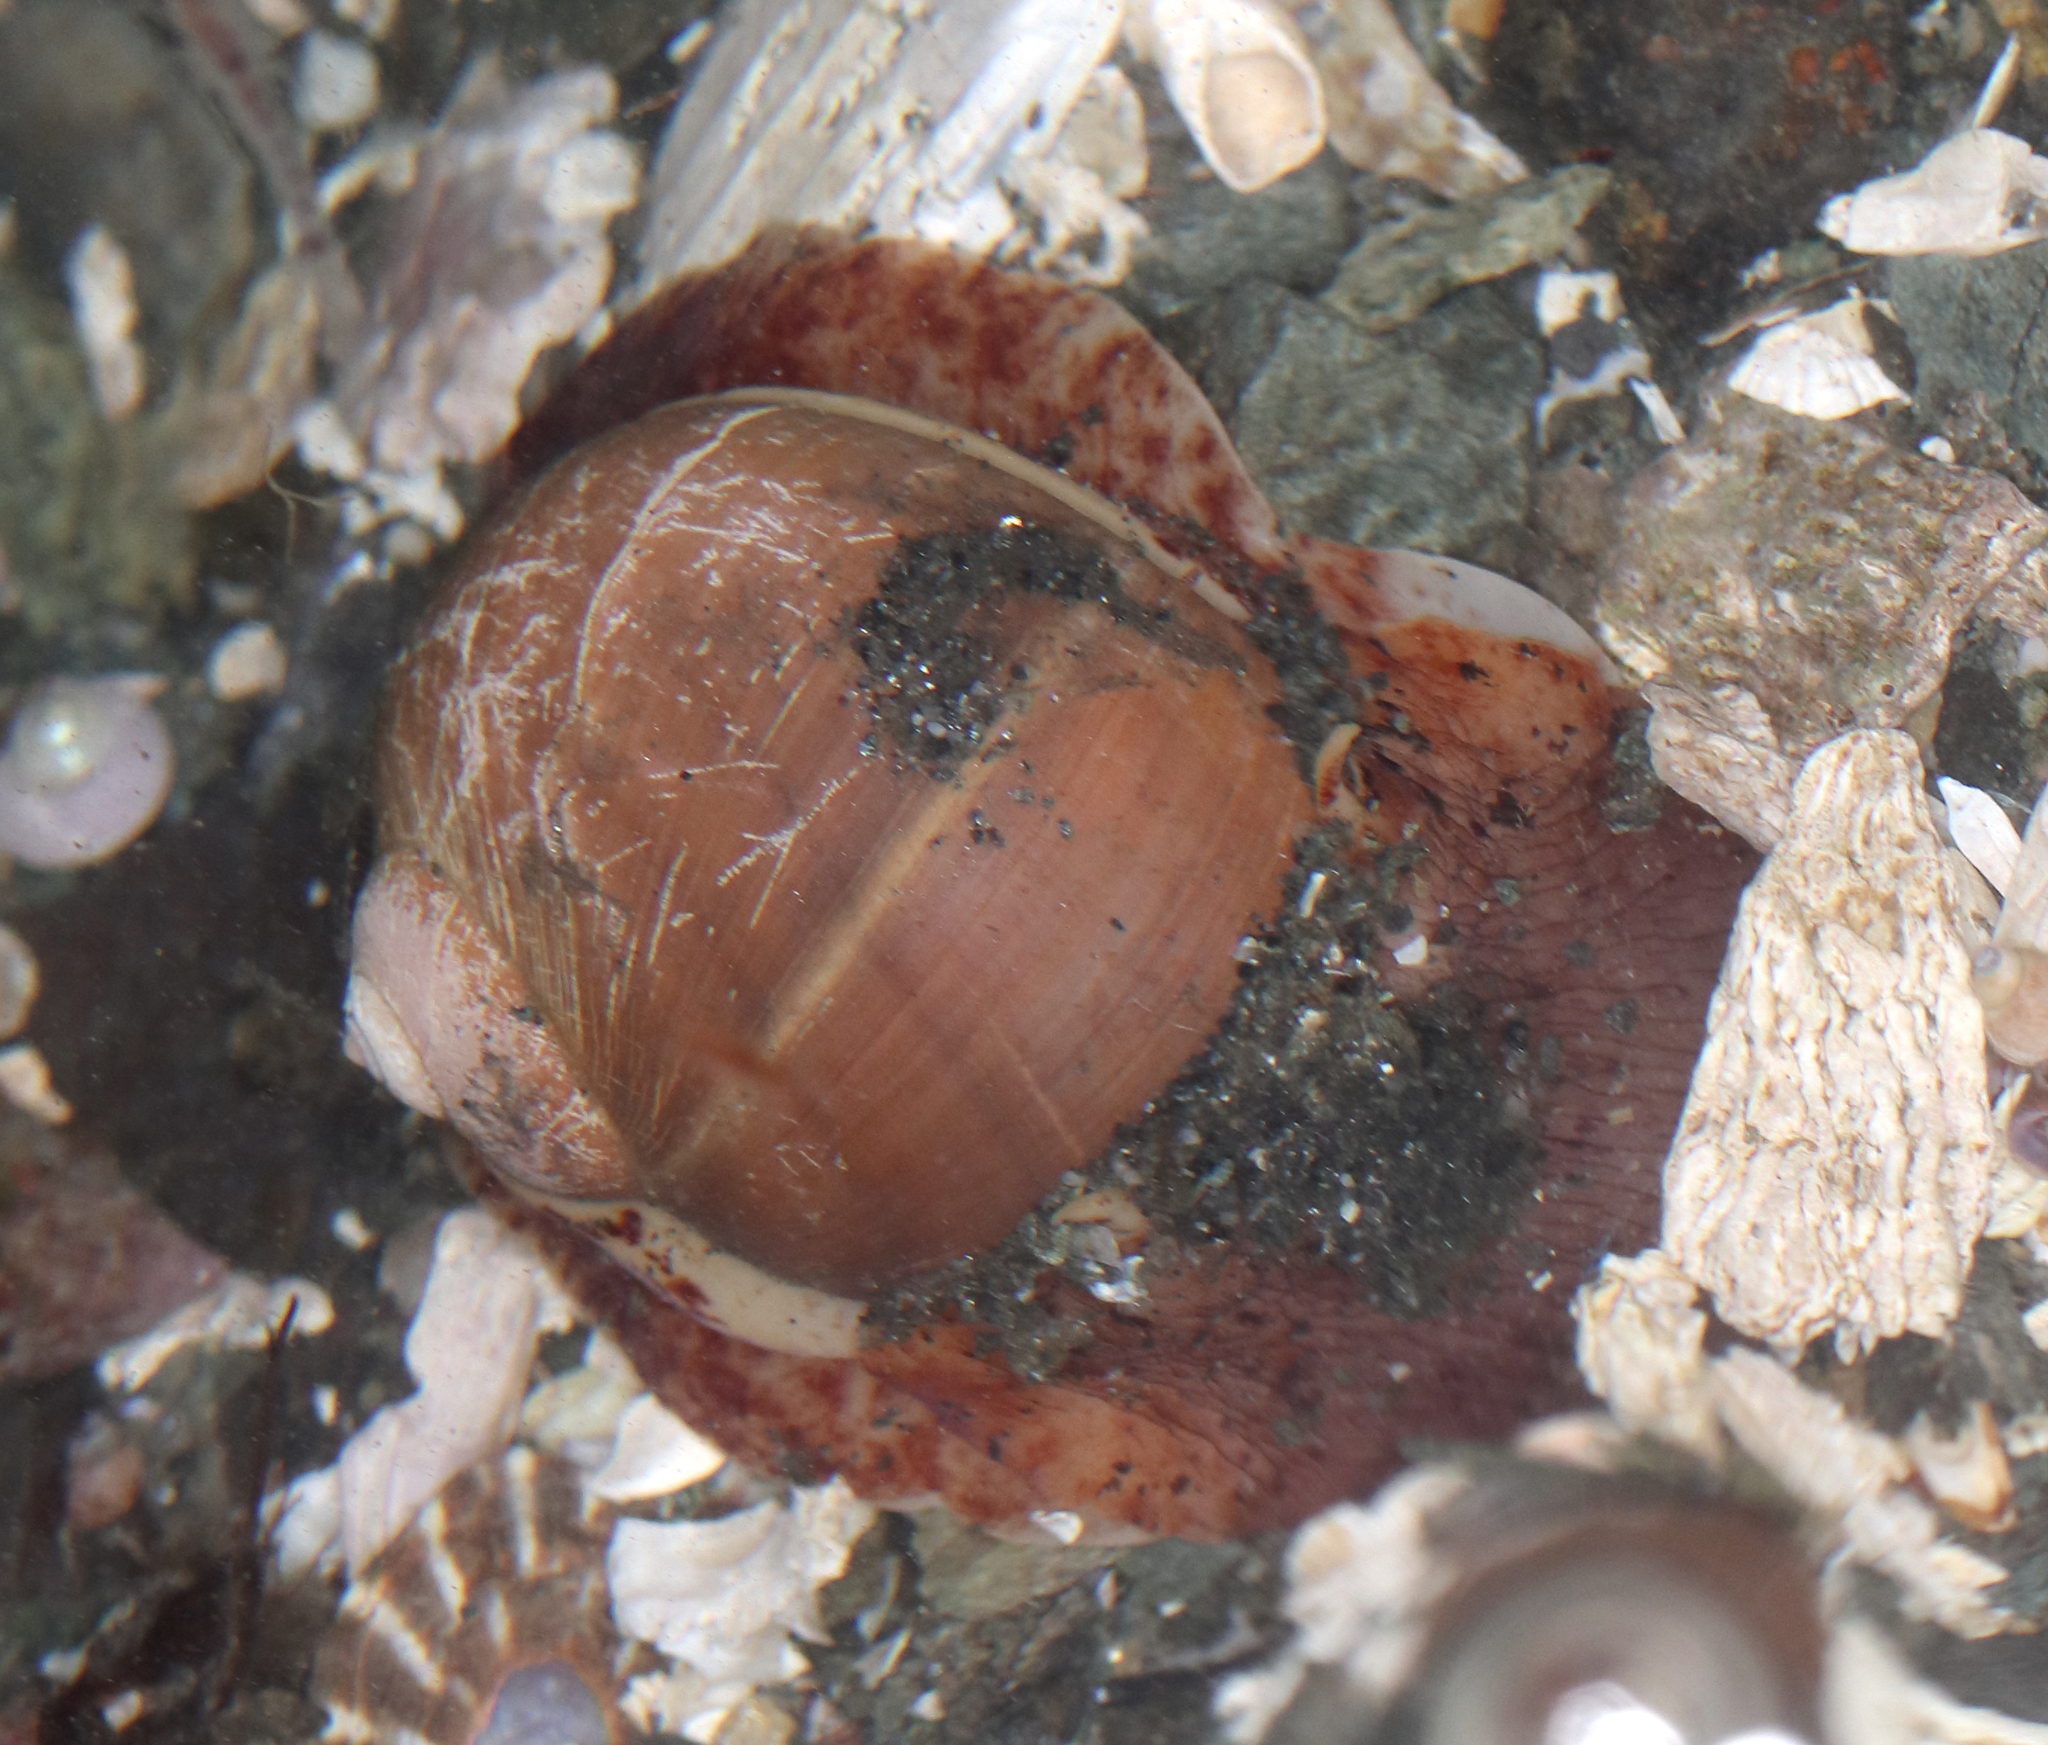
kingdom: Animalia
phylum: Mollusca
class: Gastropoda
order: Littorinimorpha
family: Naticidae
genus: Cryptonatica
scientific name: Cryptonatica aleutica
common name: Aleutian moon snail
